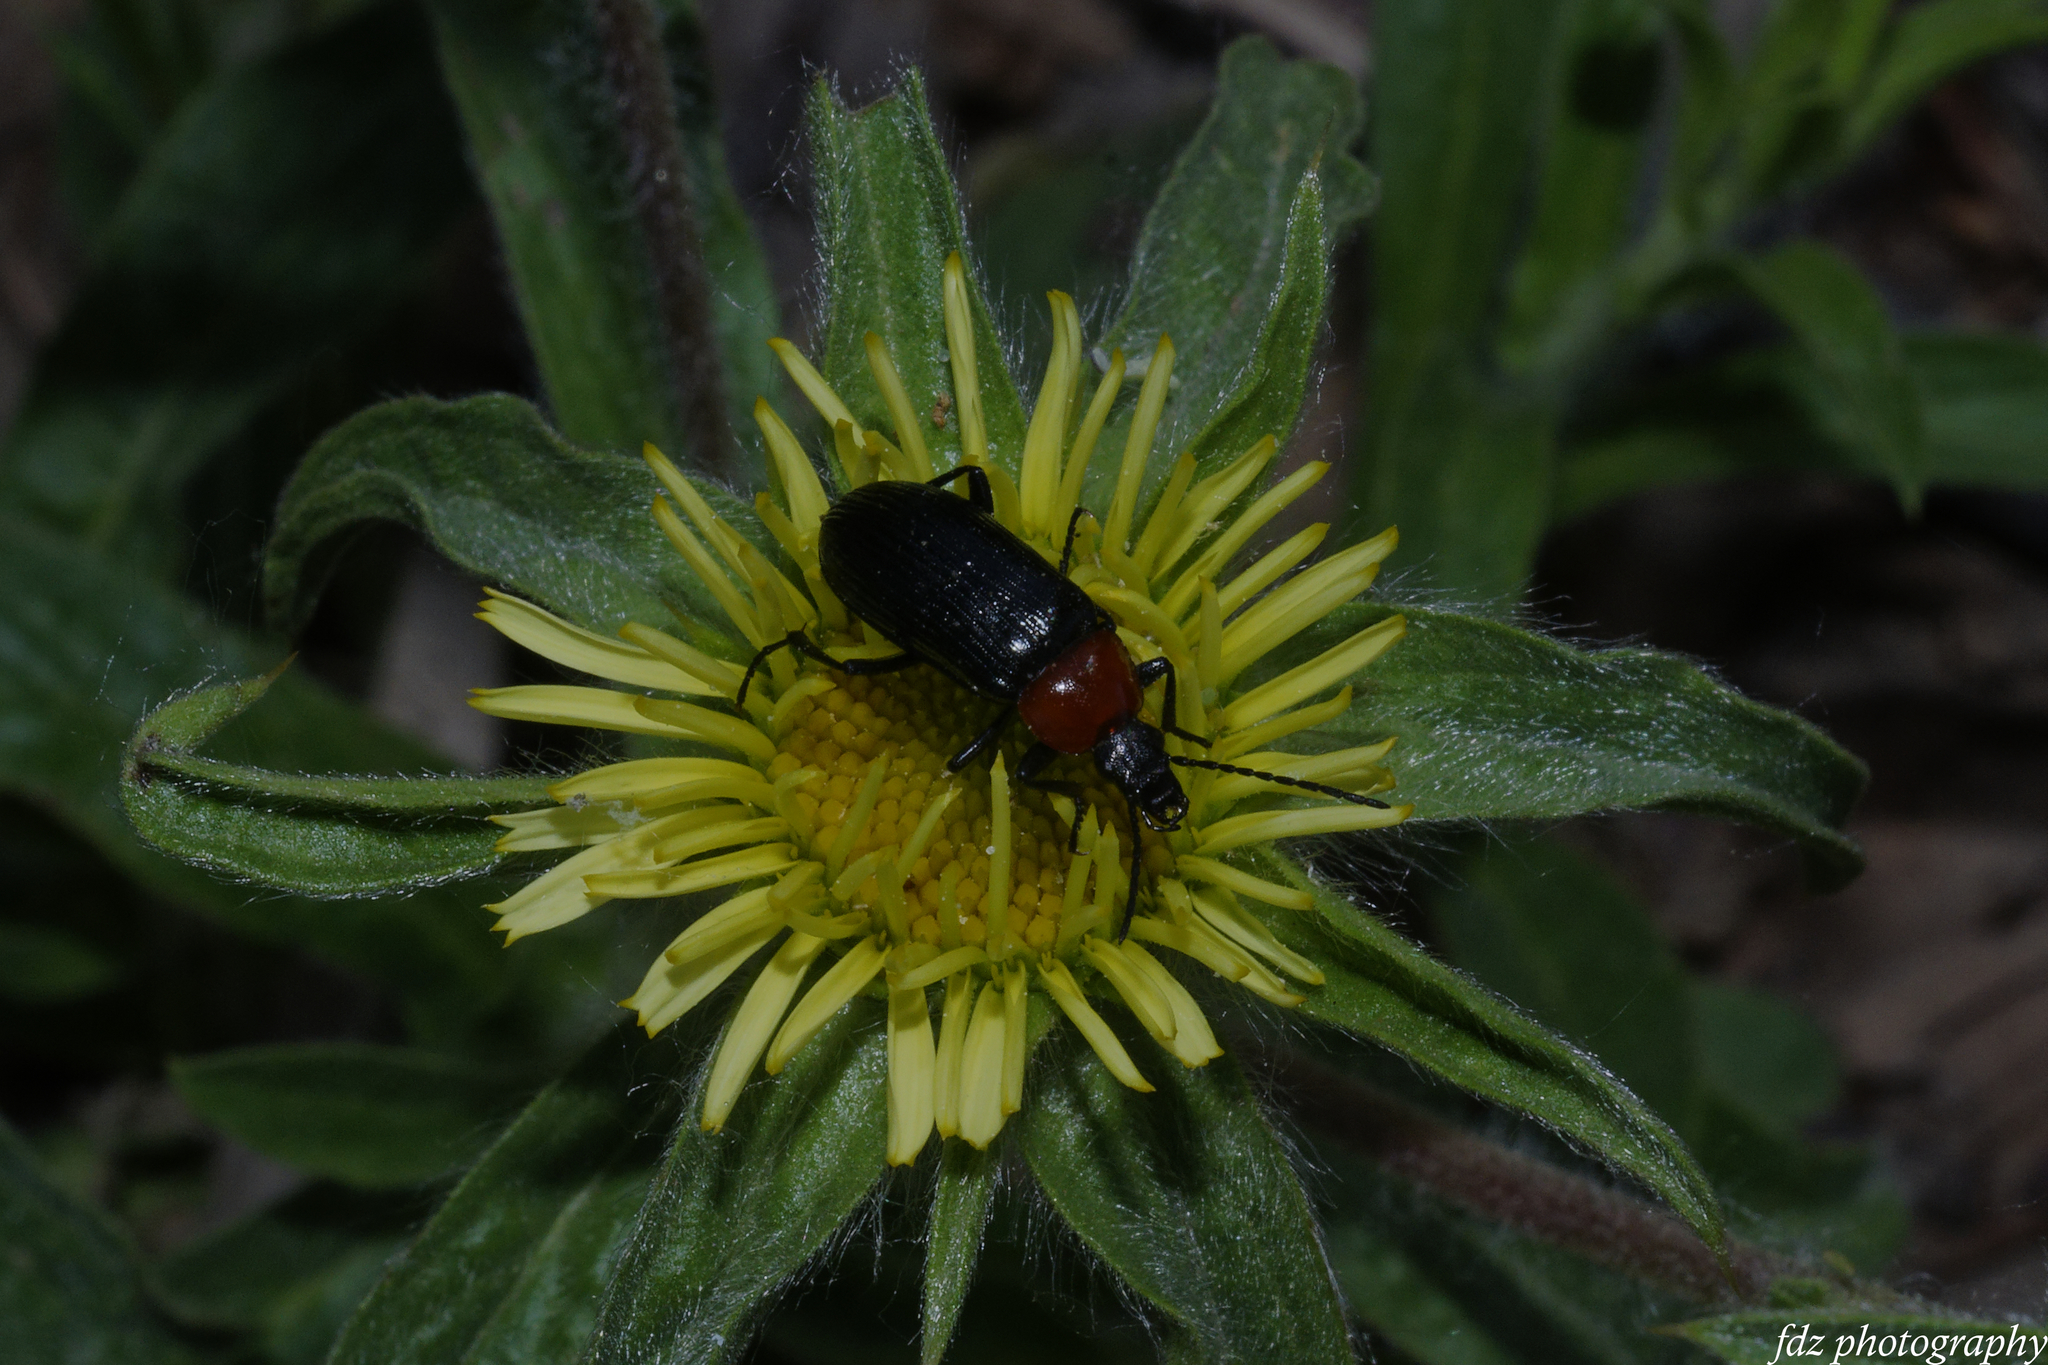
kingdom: Animalia
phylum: Arthropoda
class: Insecta
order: Coleoptera
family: Tenebrionidae
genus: Heliotaurus
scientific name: Heliotaurus ruficollis
